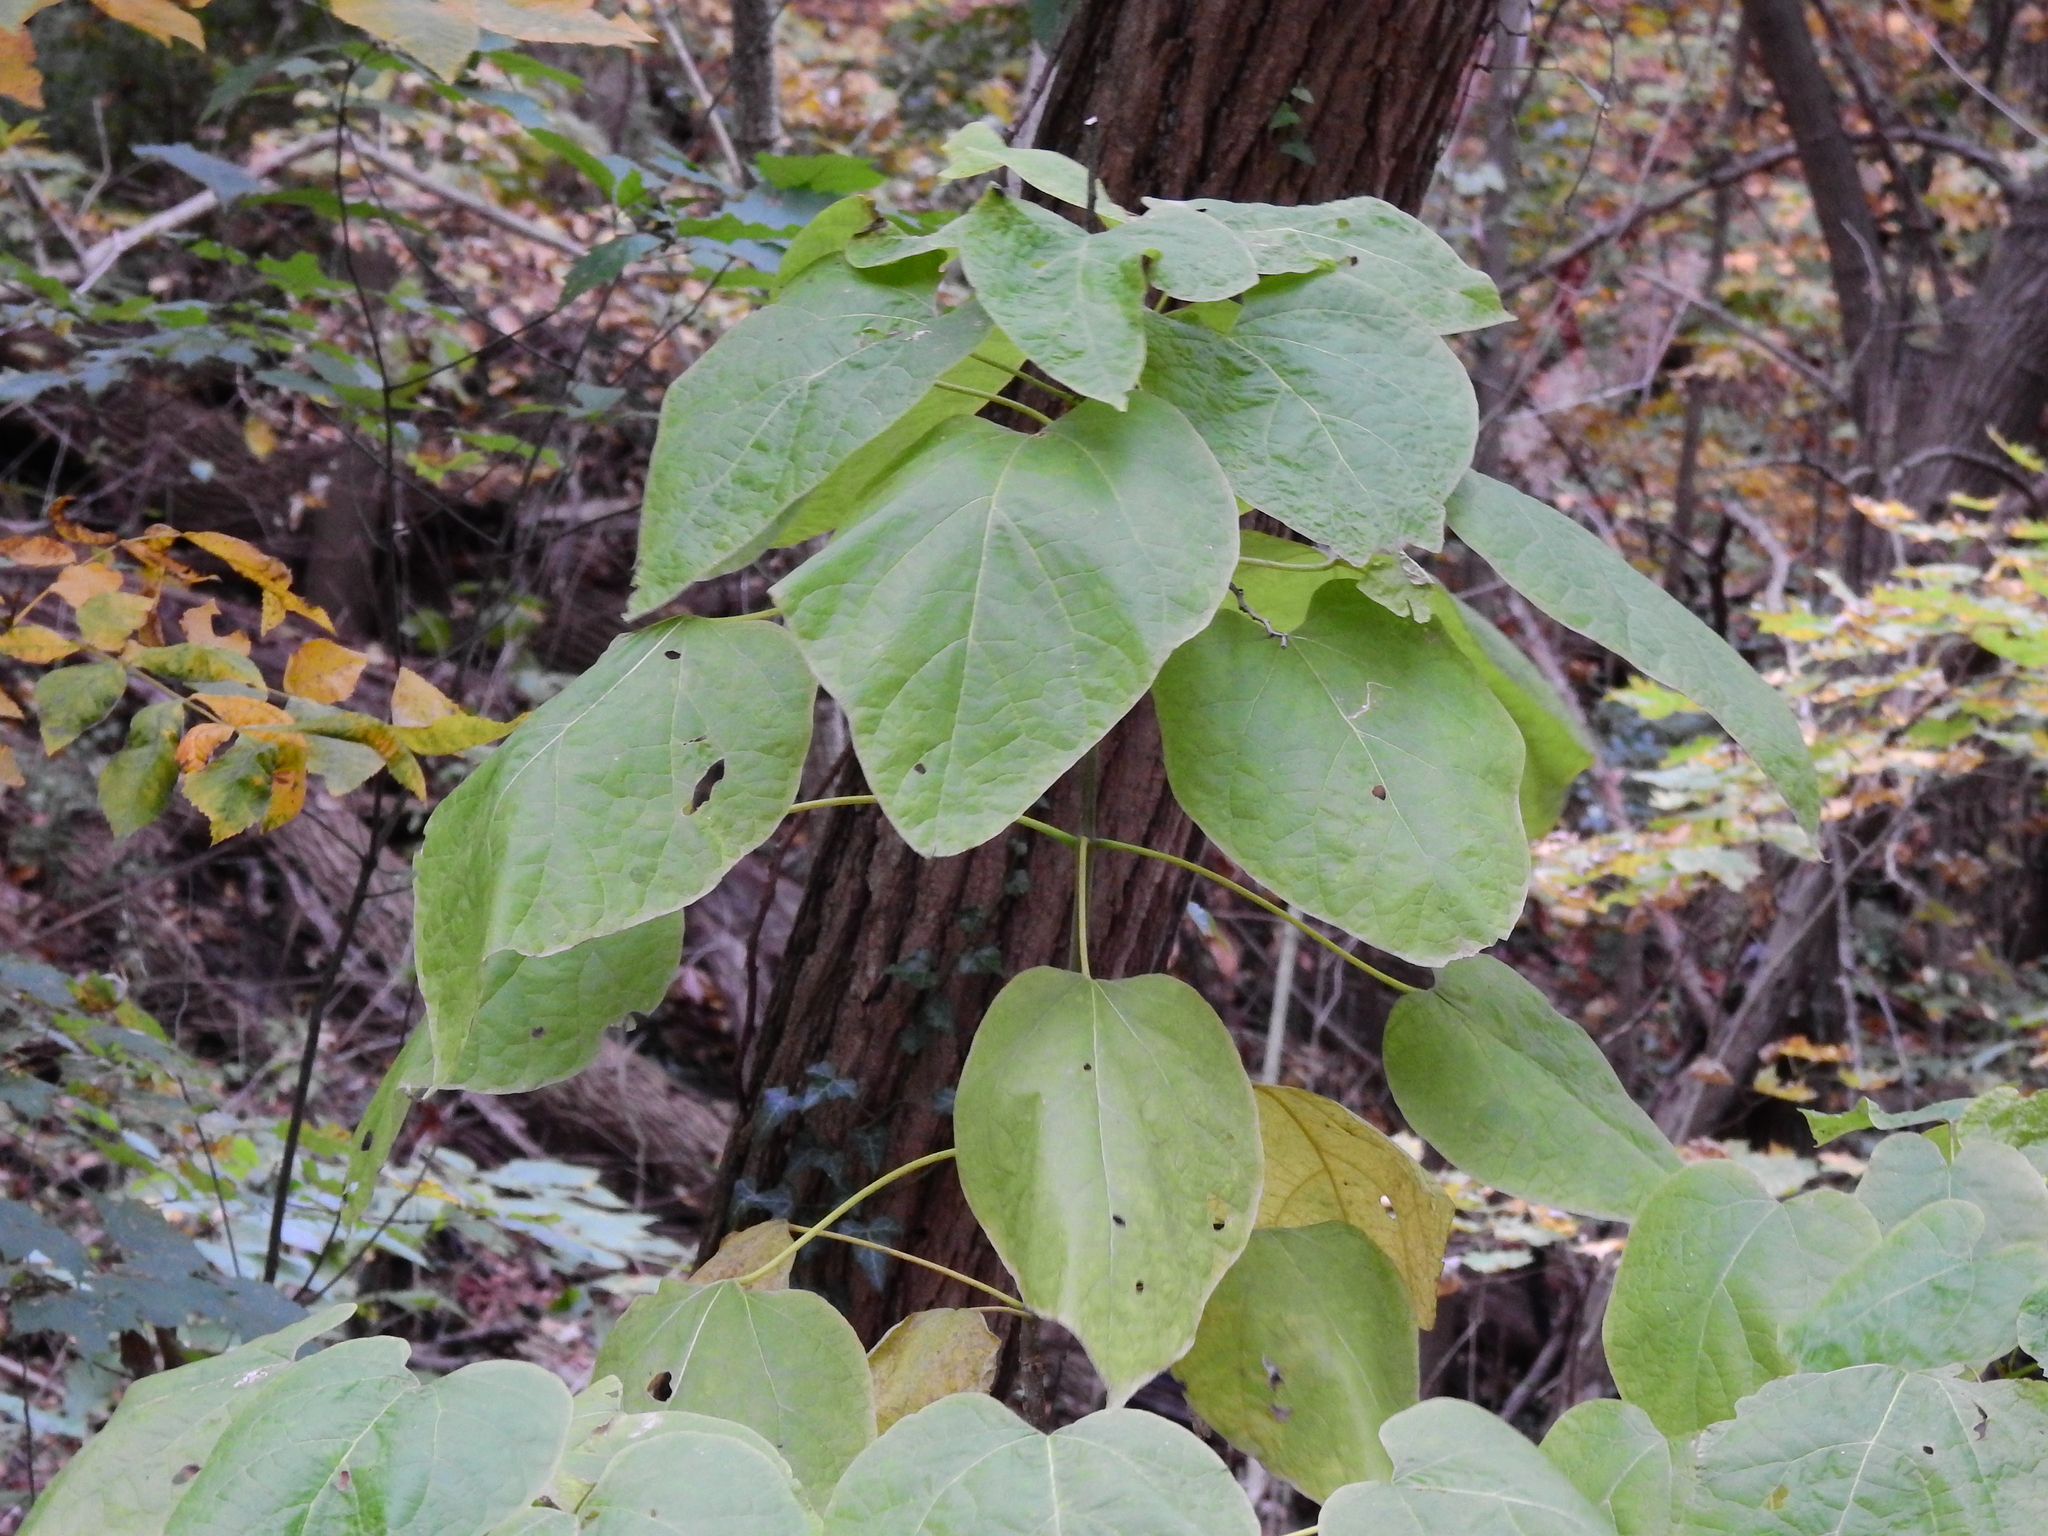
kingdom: Plantae
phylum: Tracheophyta
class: Magnoliopsida
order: Lamiales
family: Bignoniaceae
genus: Catalpa
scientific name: Catalpa speciosa
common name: Northern catalpa
